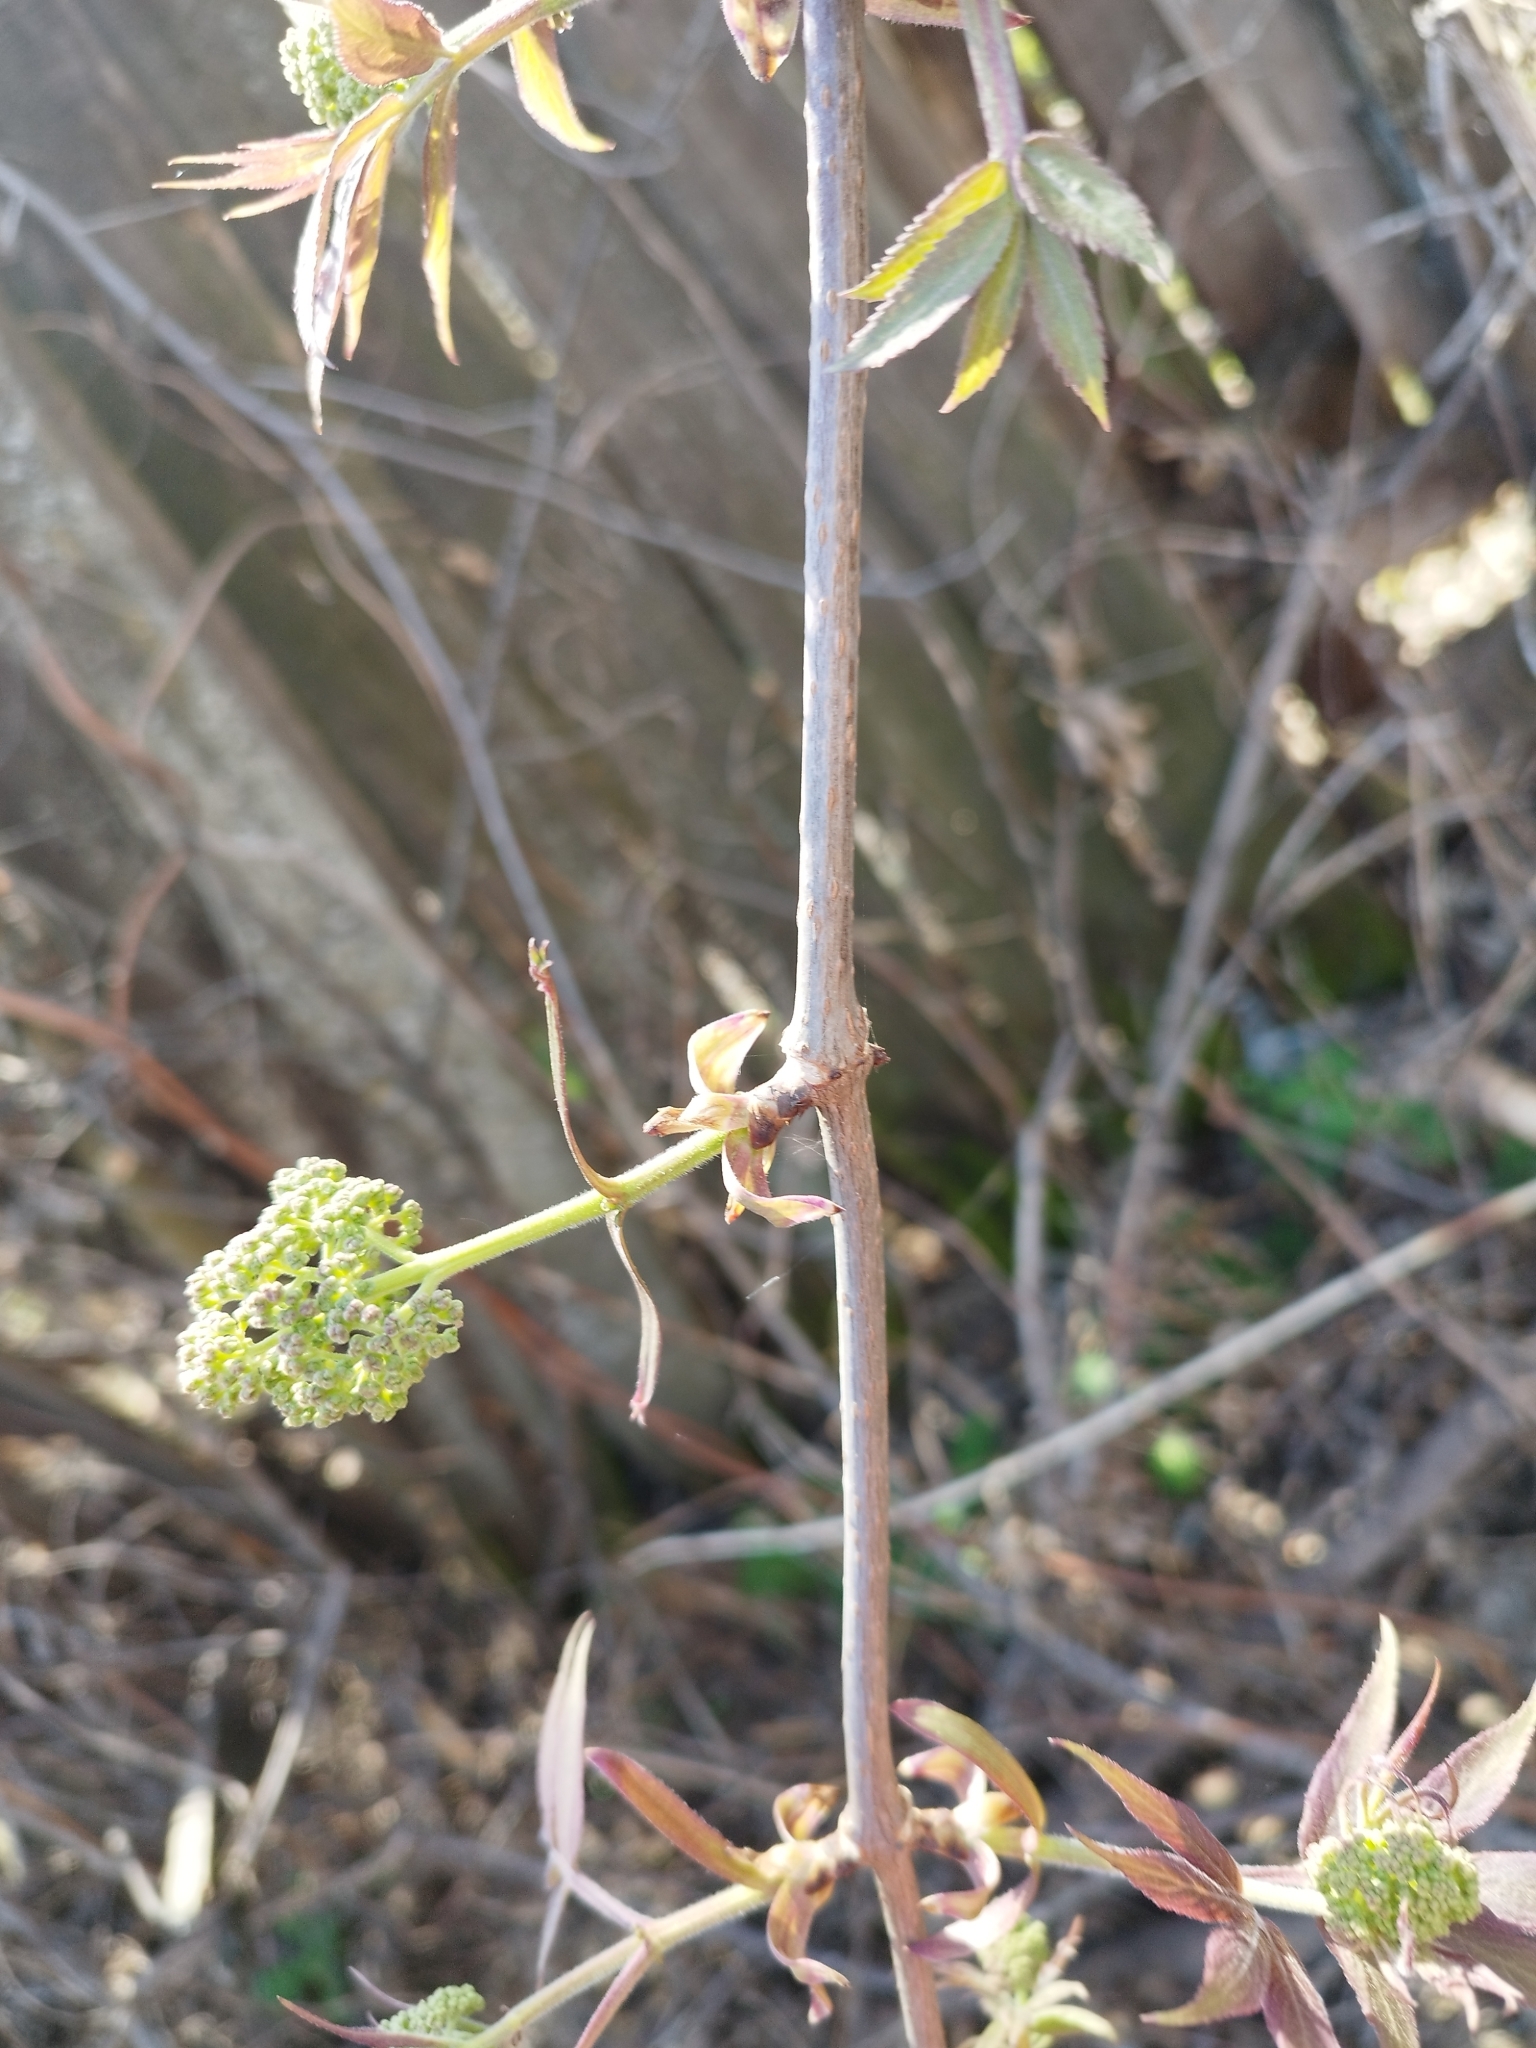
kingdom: Plantae
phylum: Tracheophyta
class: Magnoliopsida
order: Dipsacales
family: Viburnaceae
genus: Sambucus
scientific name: Sambucus racemosa
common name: Red-berried elder
